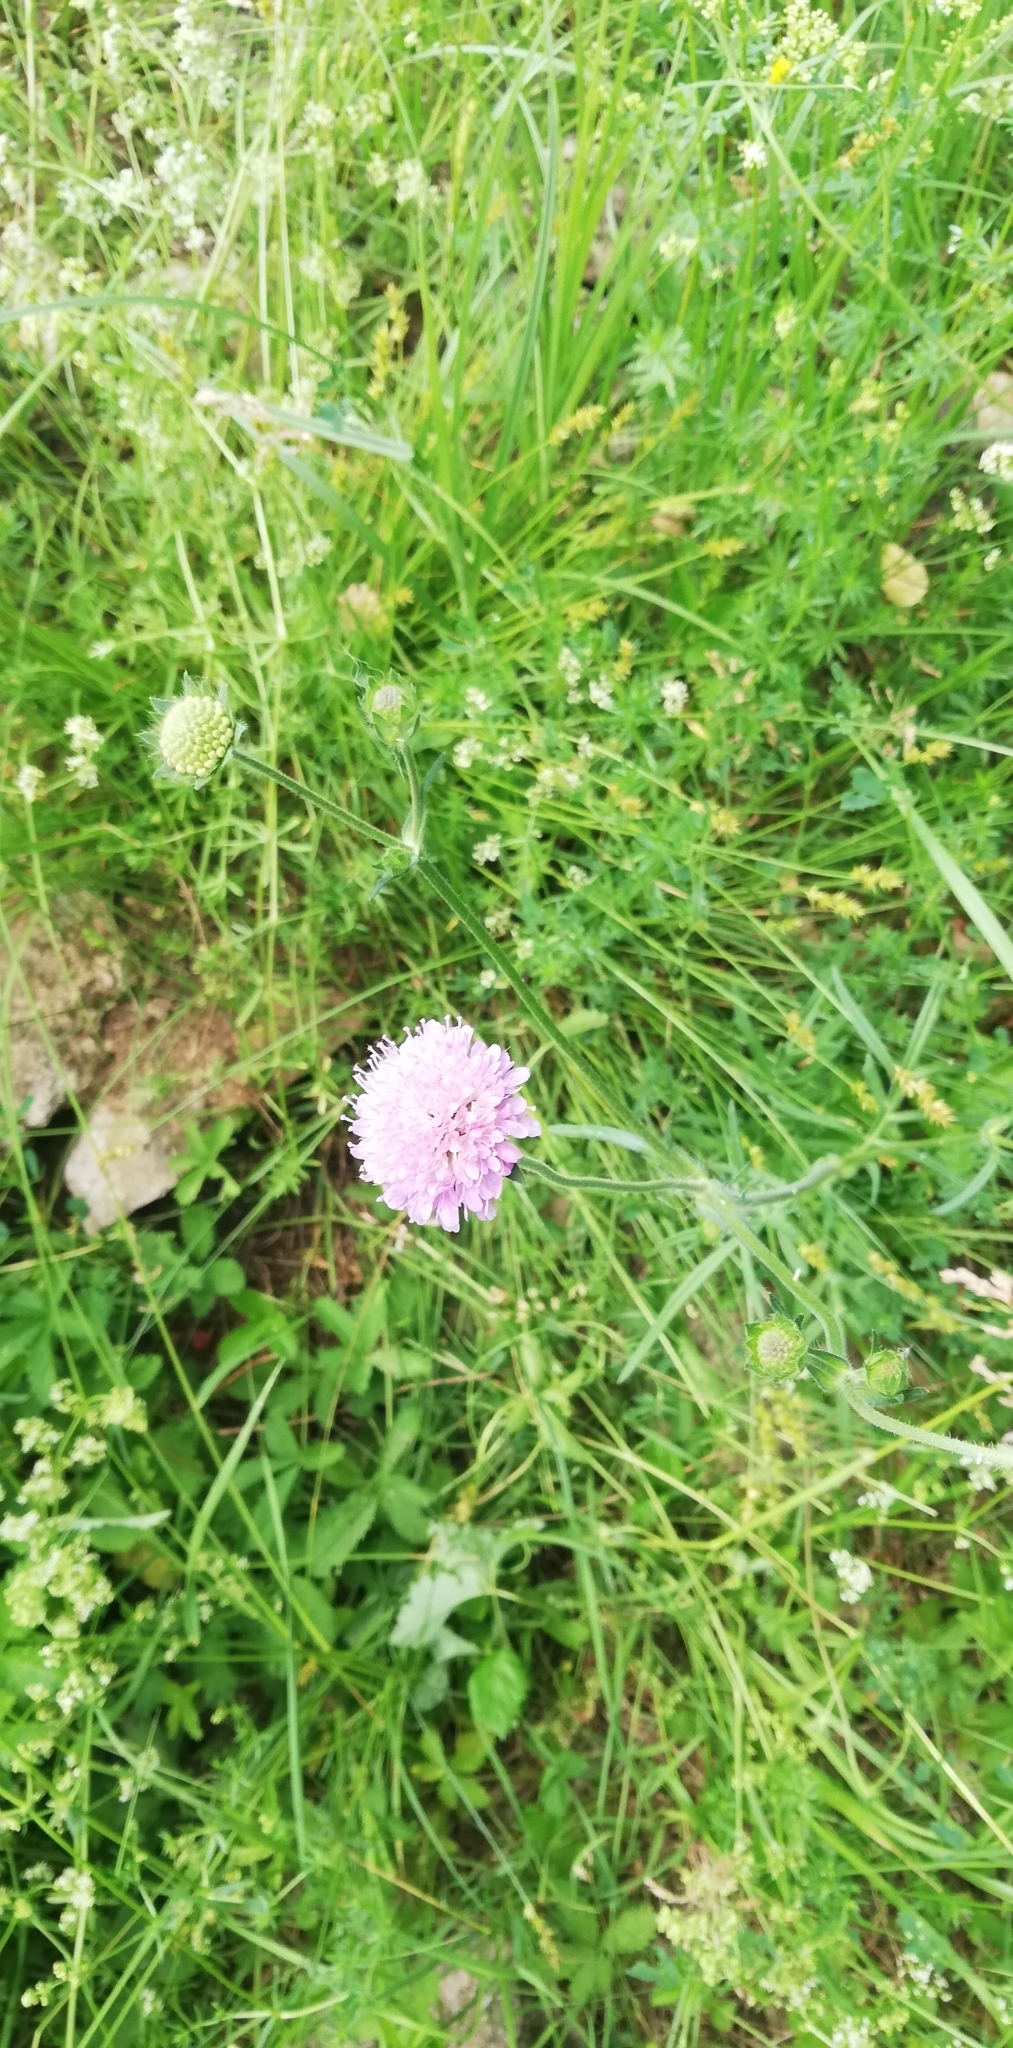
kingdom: Plantae
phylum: Tracheophyta
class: Magnoliopsida
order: Dipsacales
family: Caprifoliaceae
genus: Knautia
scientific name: Knautia arvensis
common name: Field scabiosa
